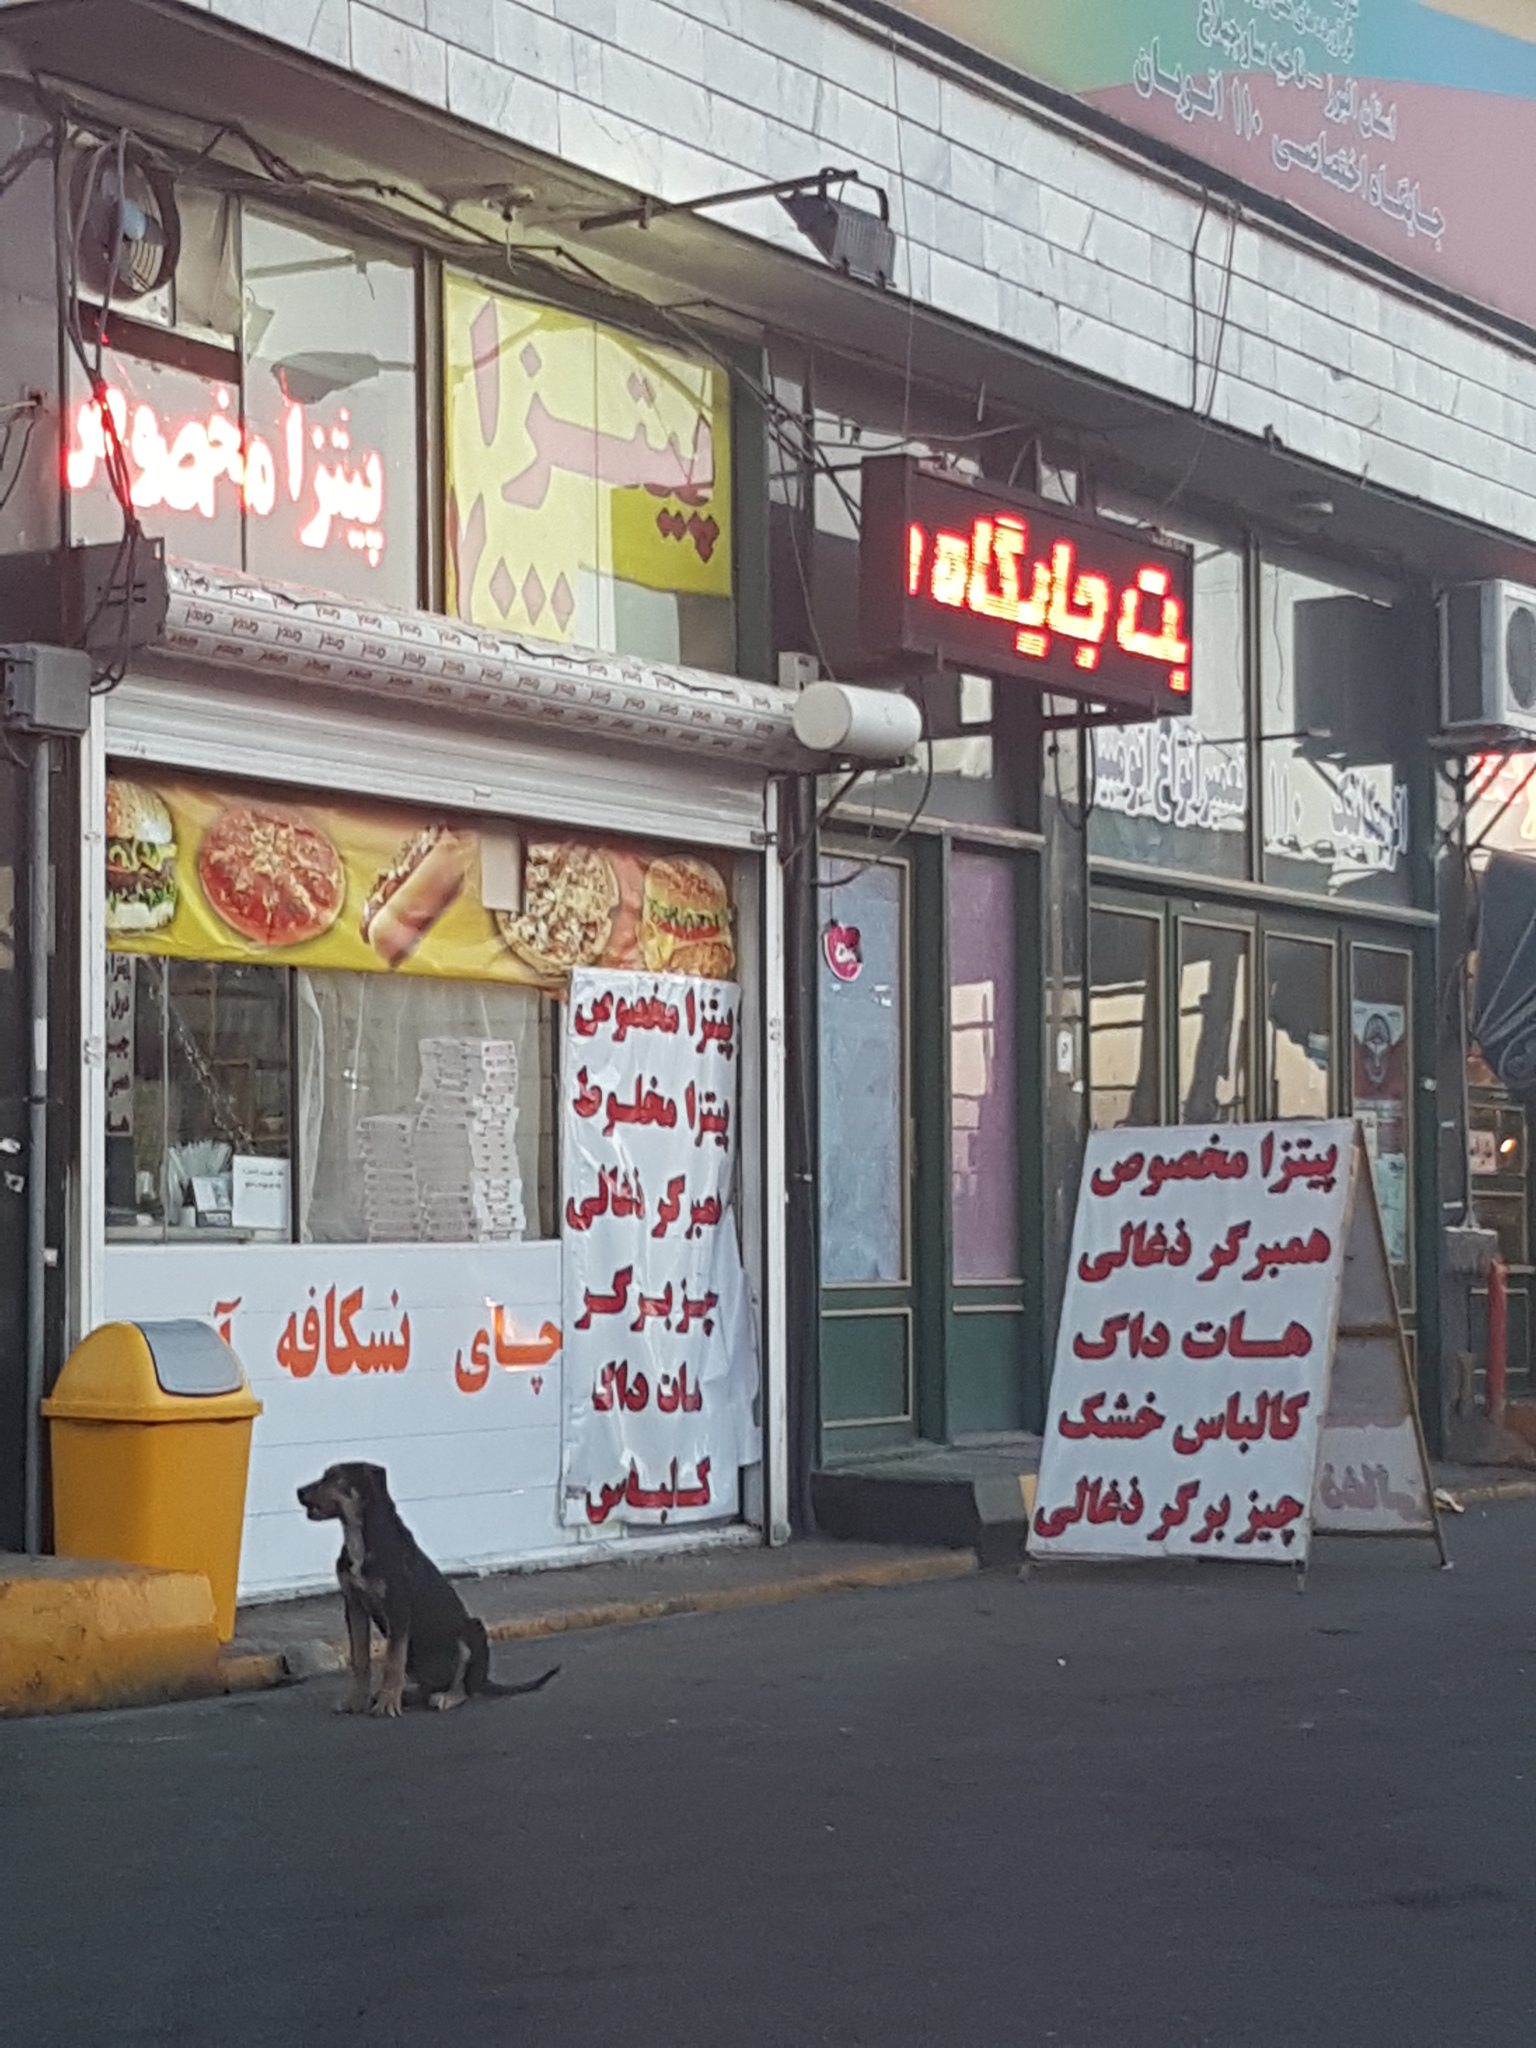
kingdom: Animalia
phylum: Chordata
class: Mammalia
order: Carnivora
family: Canidae
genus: Canis
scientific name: Canis lupus
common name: Gray wolf
